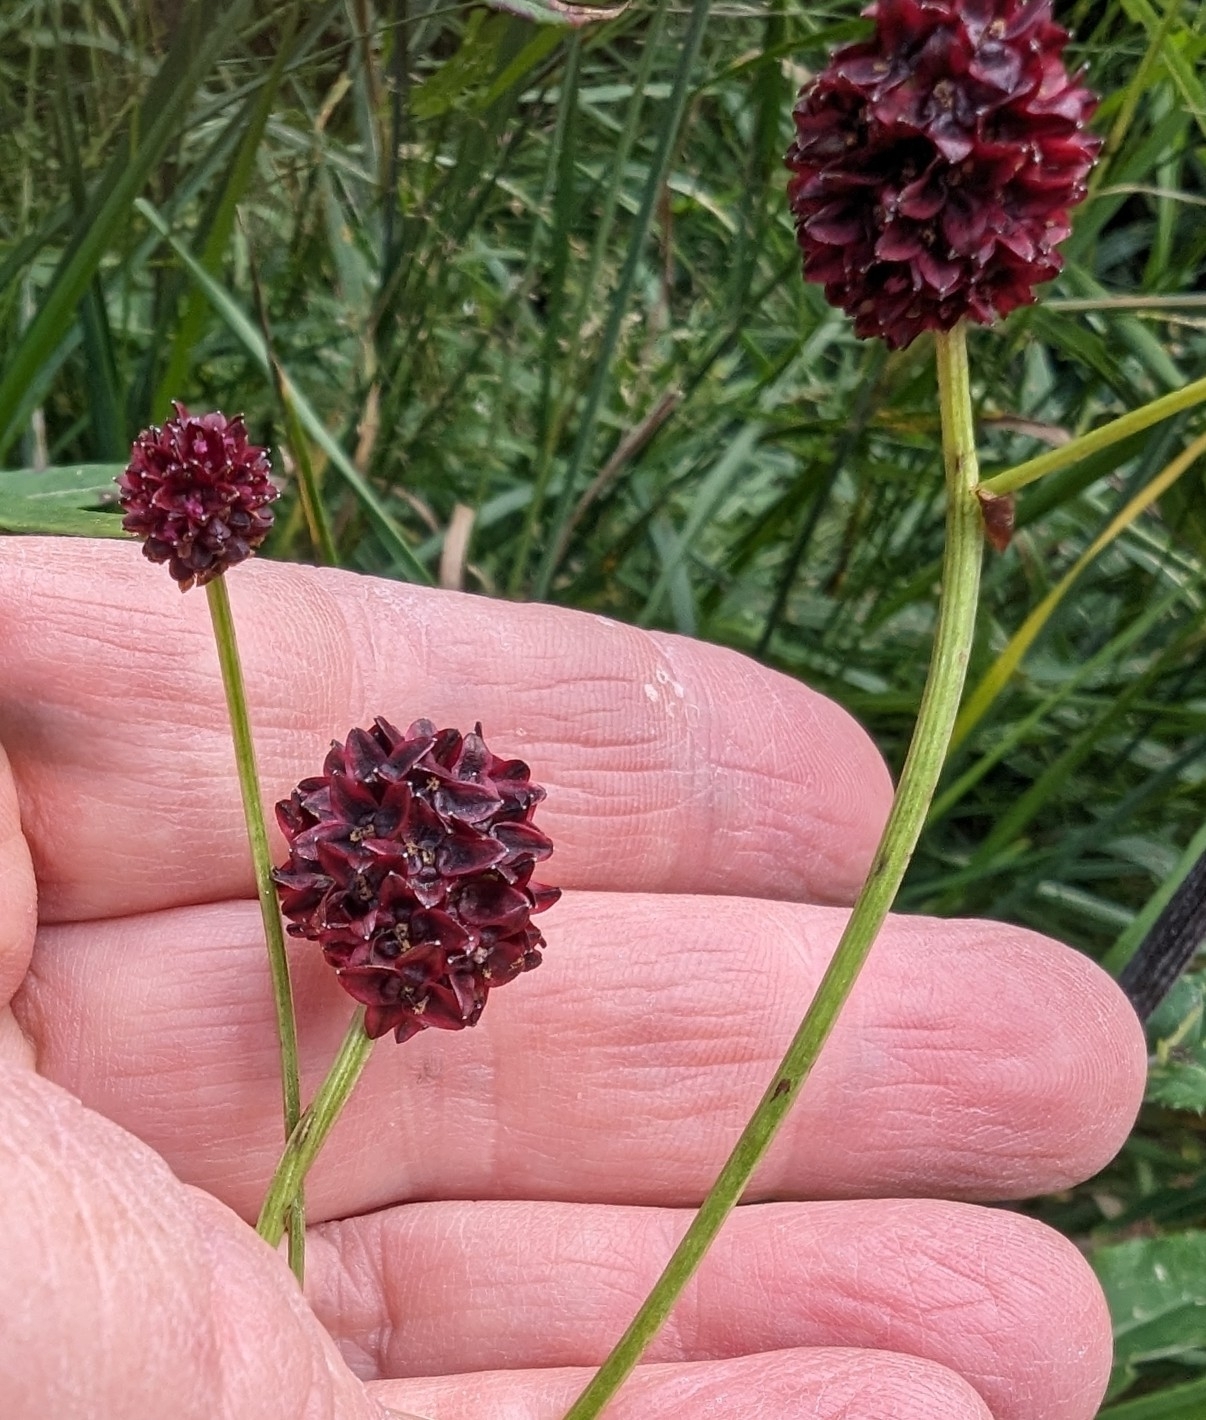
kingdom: Plantae
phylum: Tracheophyta
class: Magnoliopsida
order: Rosales
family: Rosaceae
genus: Sanguisorba
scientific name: Sanguisorba officinalis
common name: Great burnet
